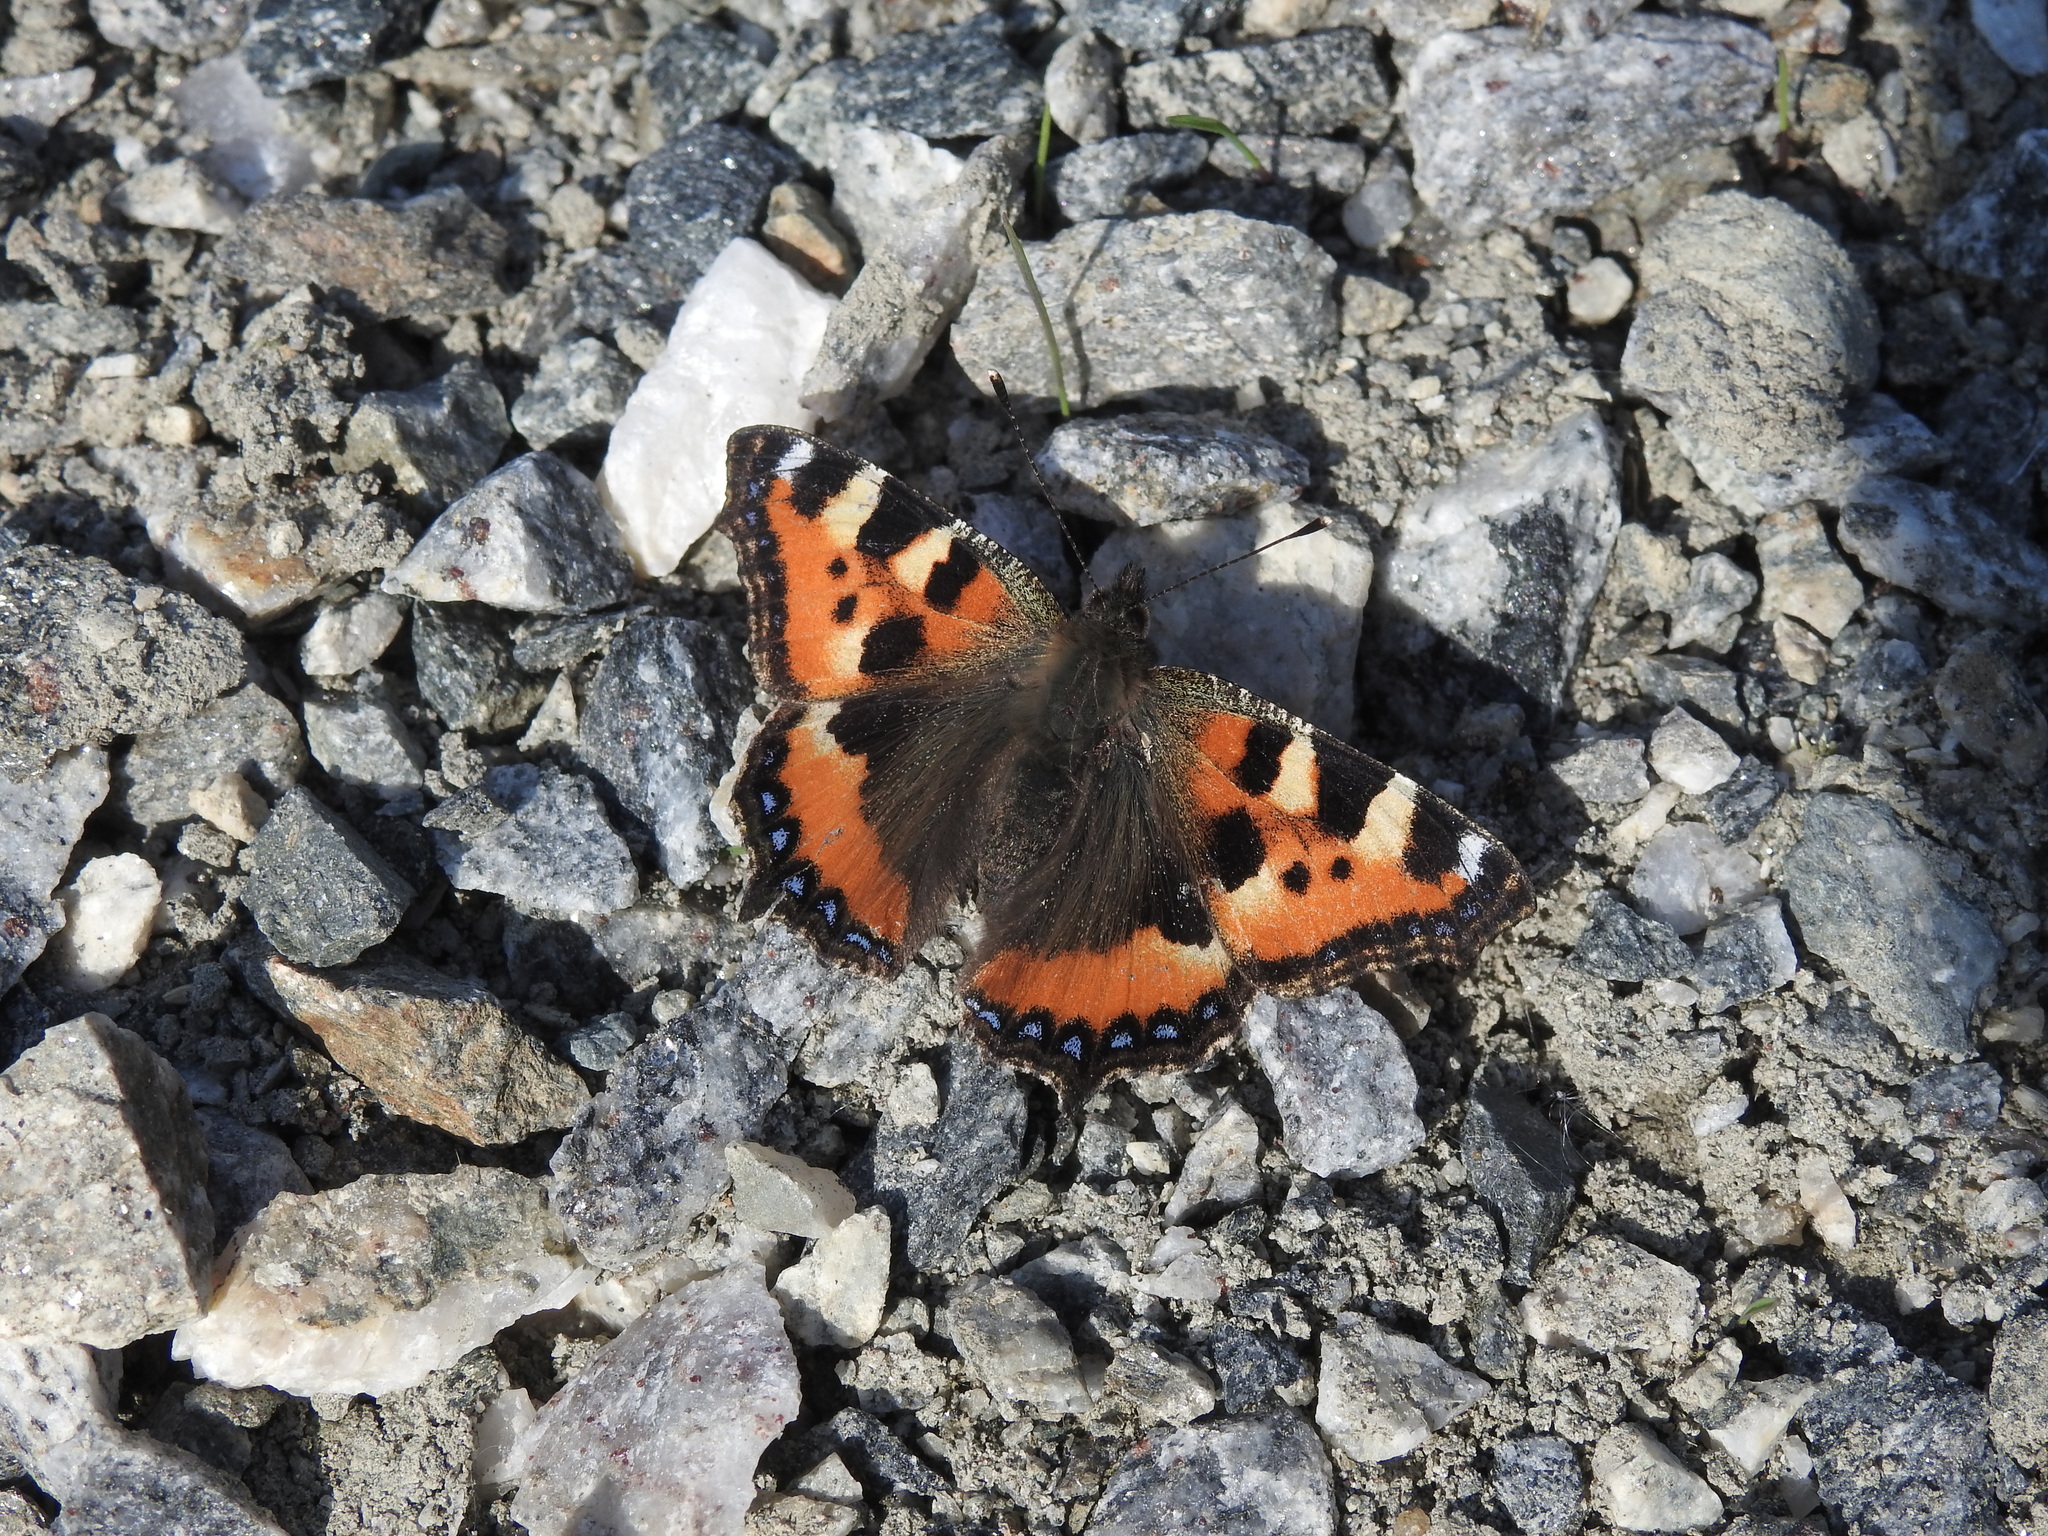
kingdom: Animalia
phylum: Arthropoda
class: Insecta
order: Lepidoptera
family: Nymphalidae
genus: Aglais
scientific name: Aglais urticae
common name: Small tortoiseshell
